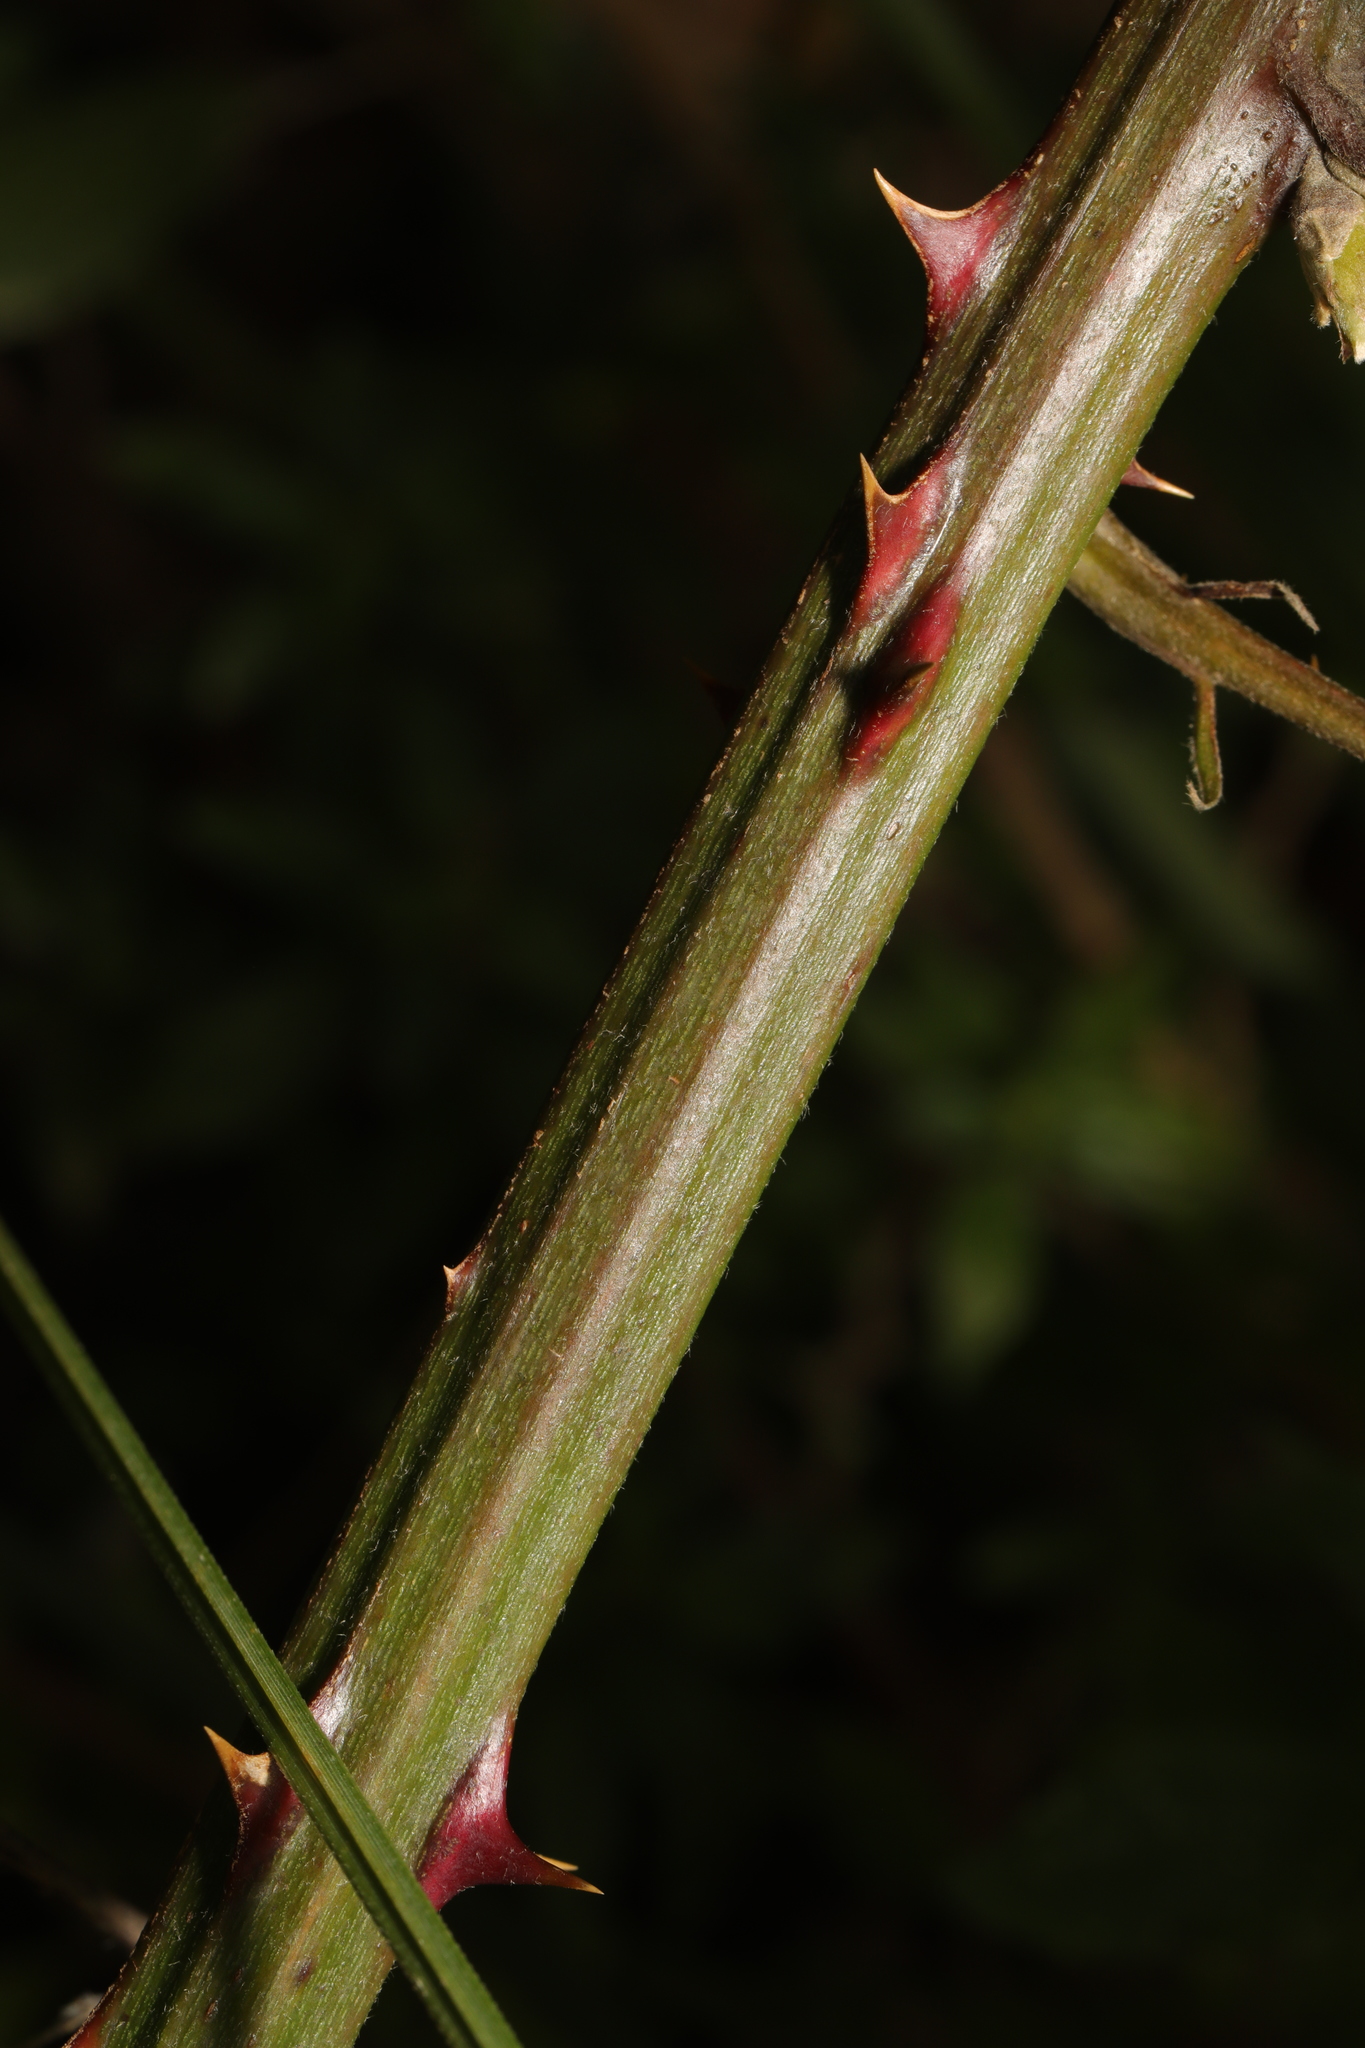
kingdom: Plantae
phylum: Tracheophyta
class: Magnoliopsida
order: Rosales
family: Rosaceae
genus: Rubus
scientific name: Rubus armeniacus
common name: Himalayan blackberry
